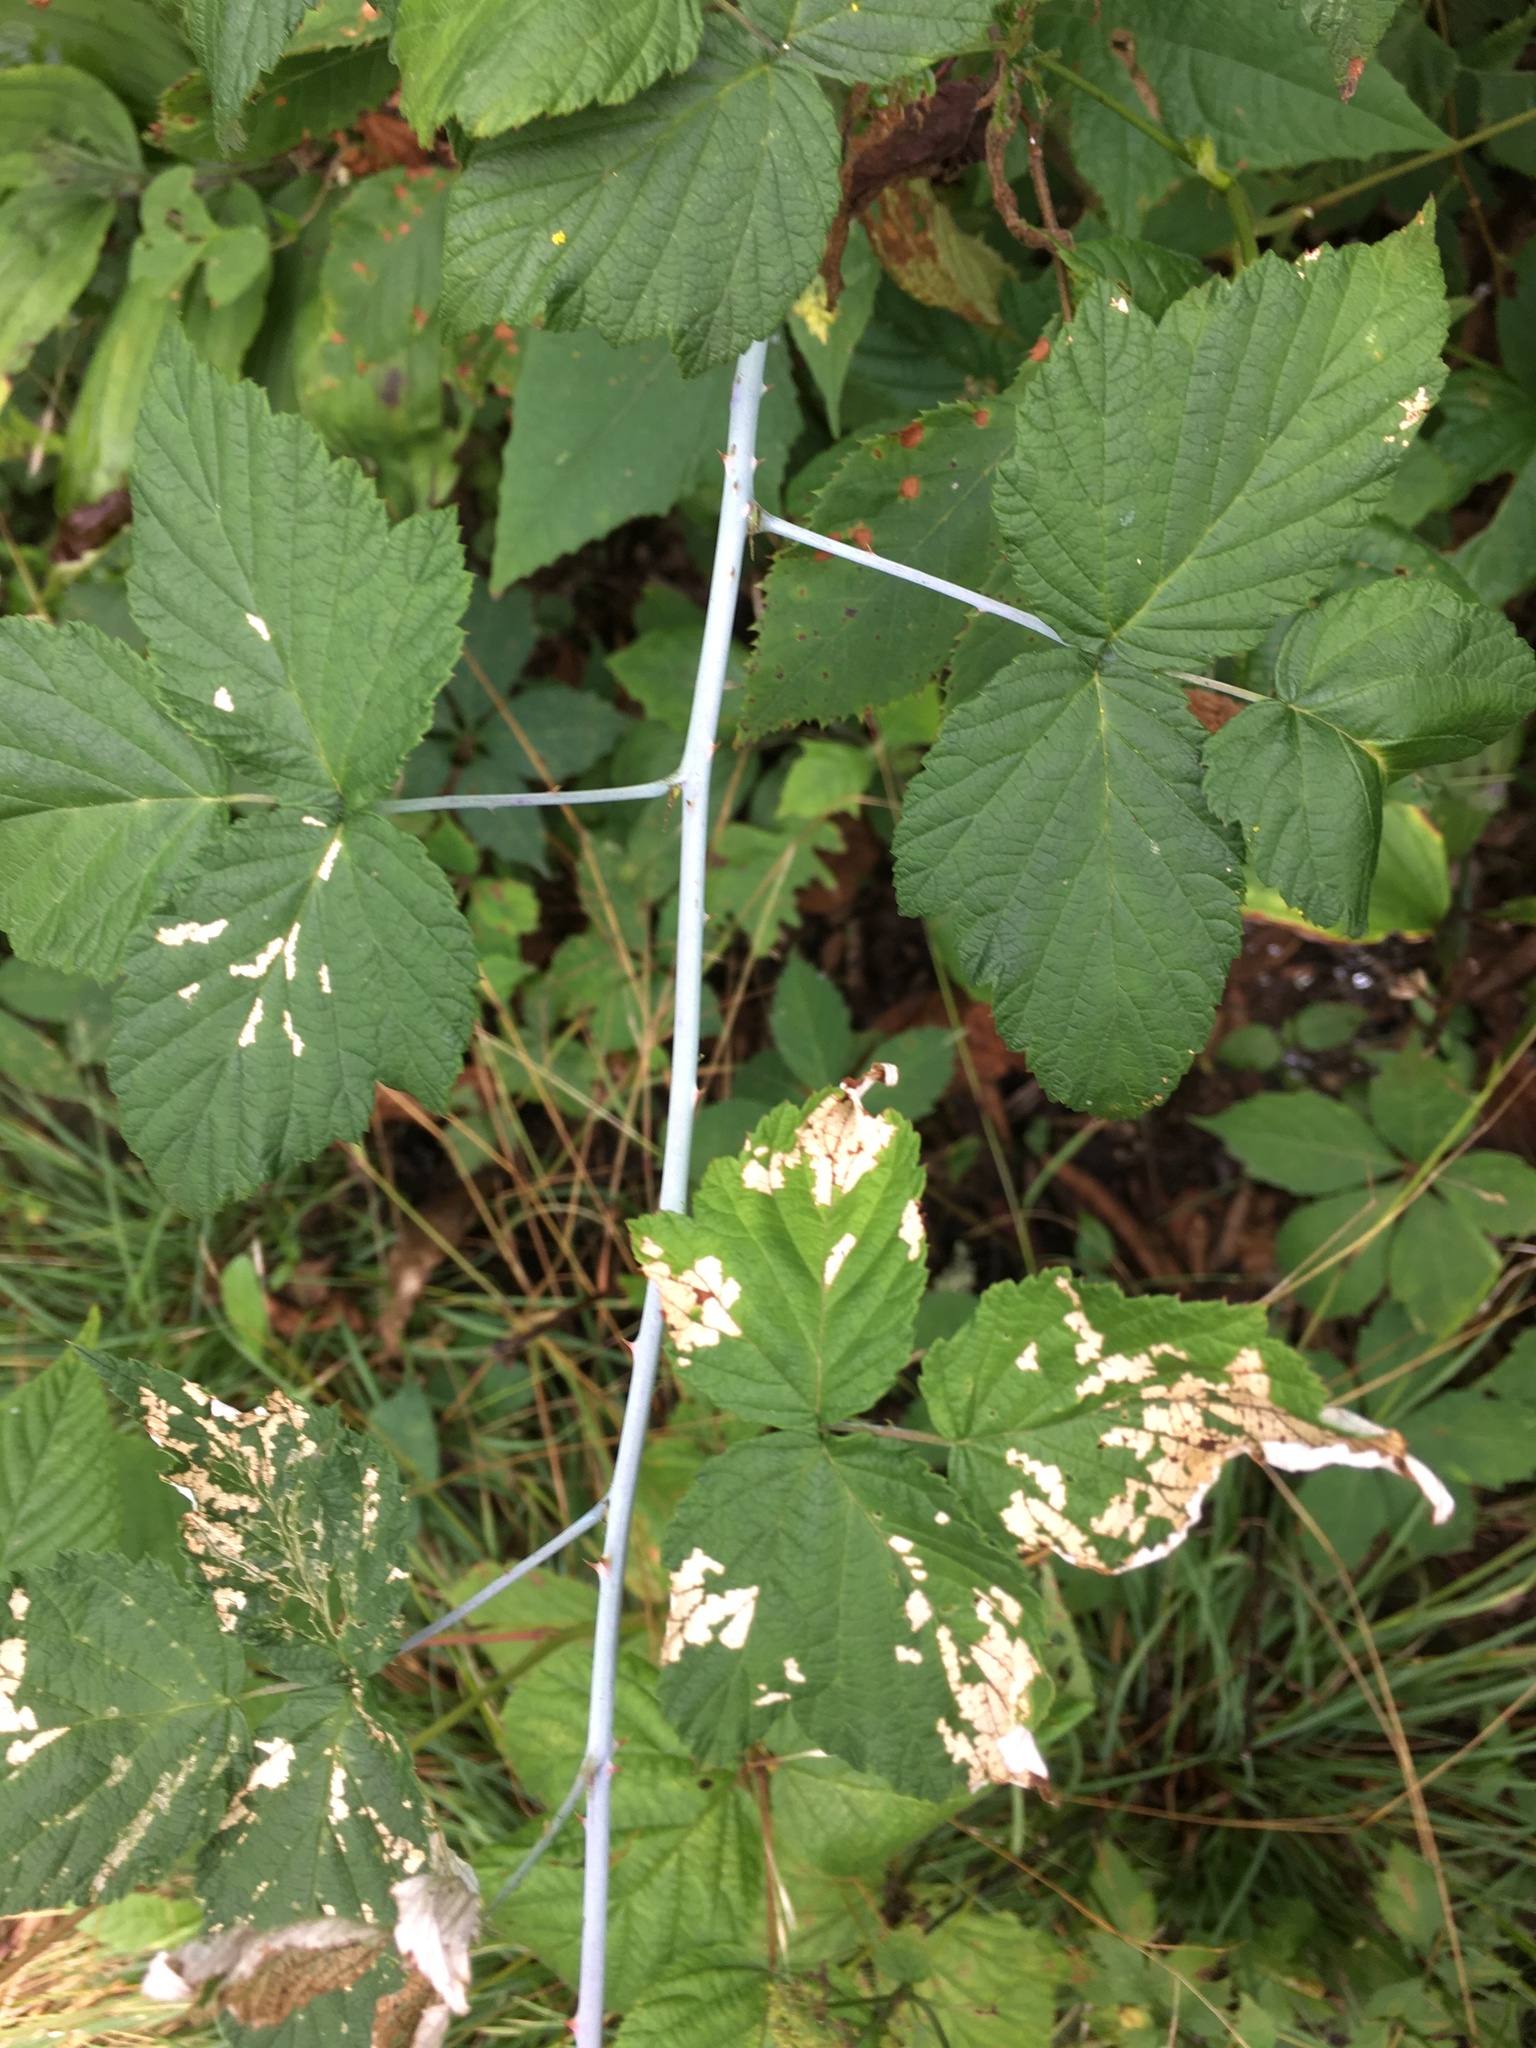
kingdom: Plantae
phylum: Tracheophyta
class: Magnoliopsida
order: Rosales
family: Rosaceae
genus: Rubus
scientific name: Rubus occidentalis
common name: Black raspberry
